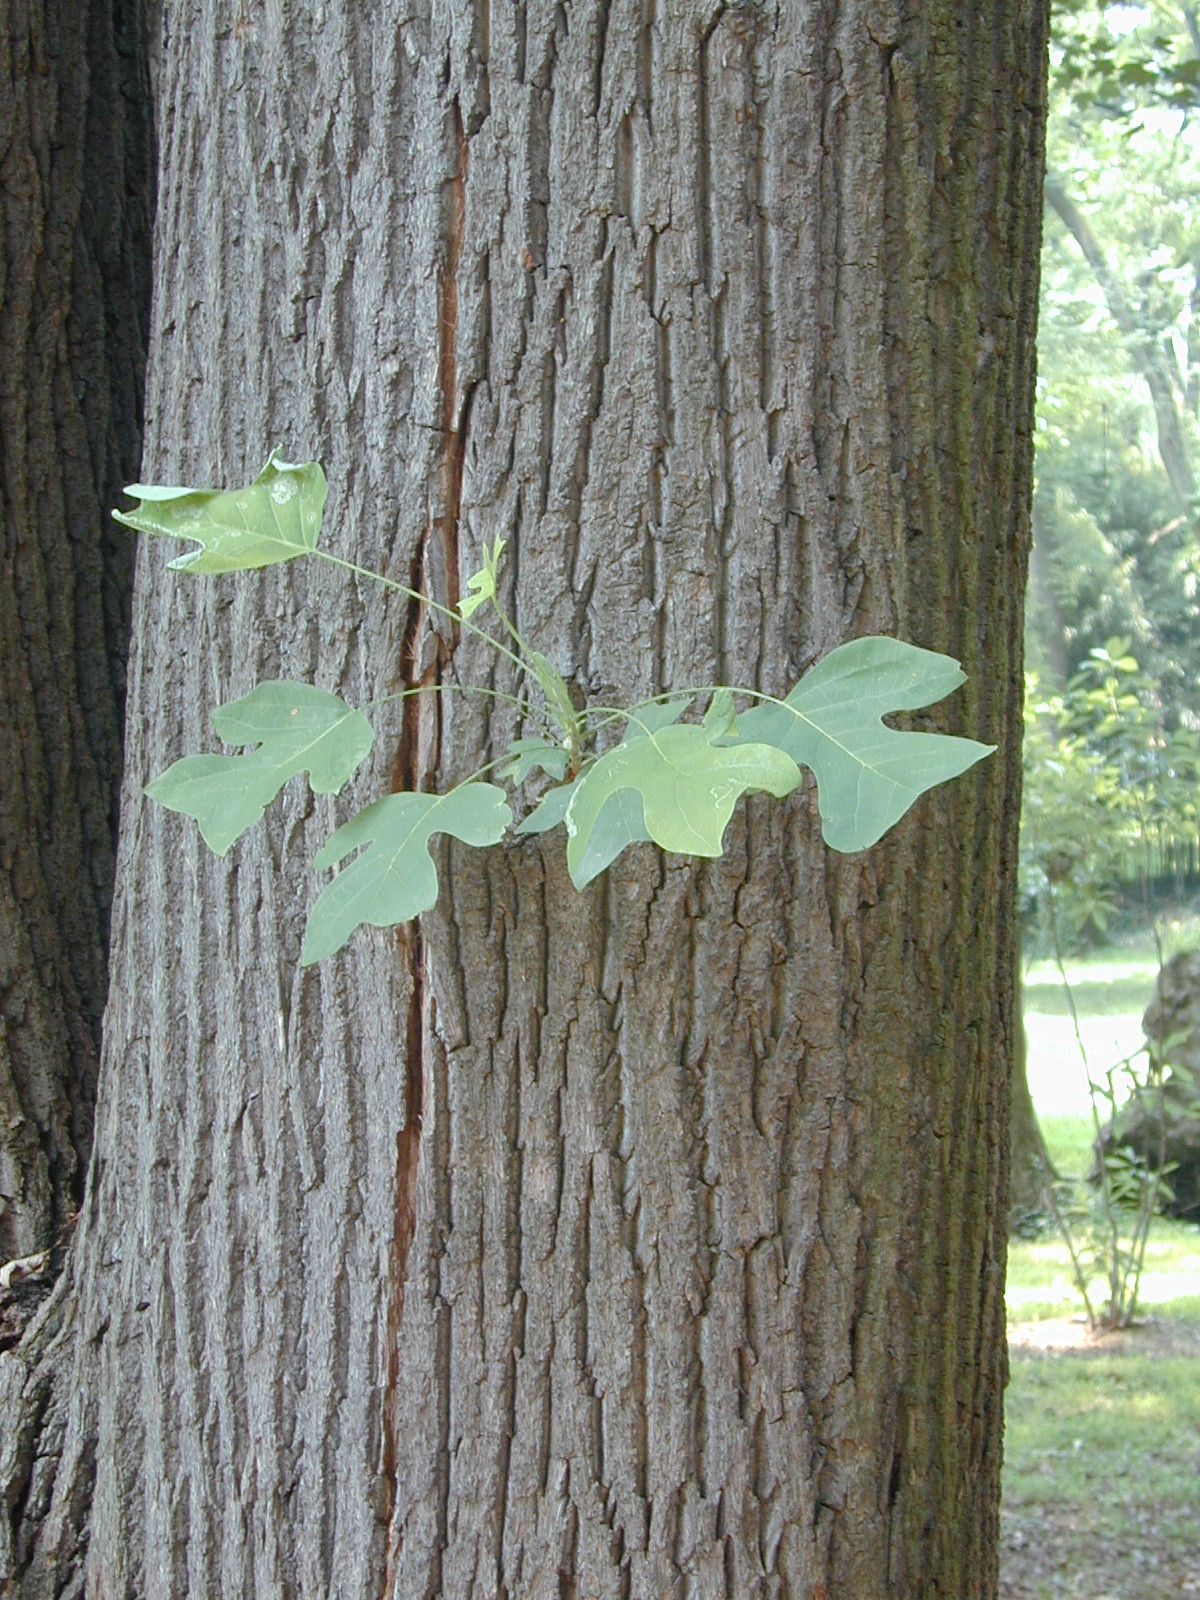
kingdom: Plantae
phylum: Tracheophyta
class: Magnoliopsida
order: Magnoliales
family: Magnoliaceae
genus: Liriodendron
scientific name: Liriodendron tulipifera
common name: Tulip tree
